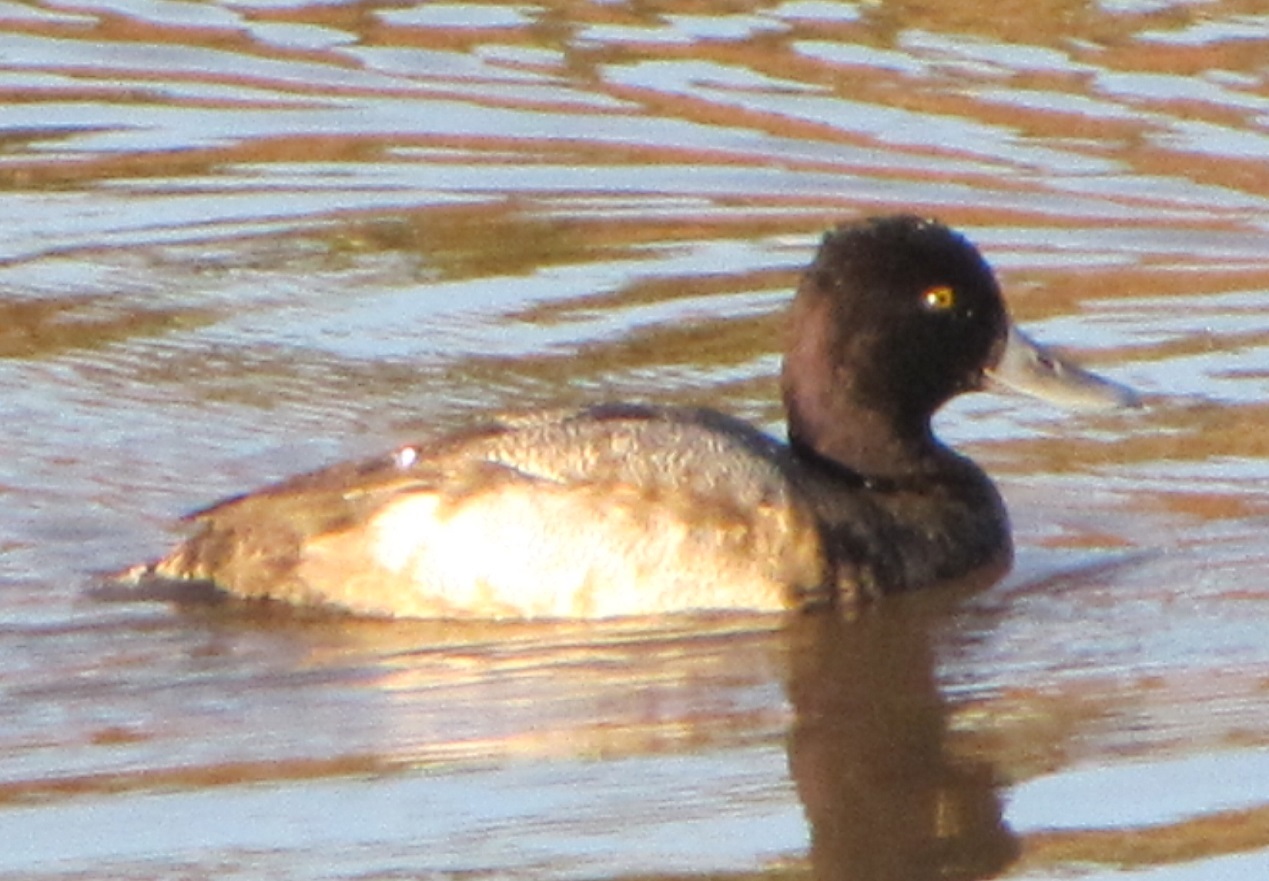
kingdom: Animalia
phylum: Chordata
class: Aves
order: Anseriformes
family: Anatidae
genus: Aythya
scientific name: Aythya affinis
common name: Lesser scaup
